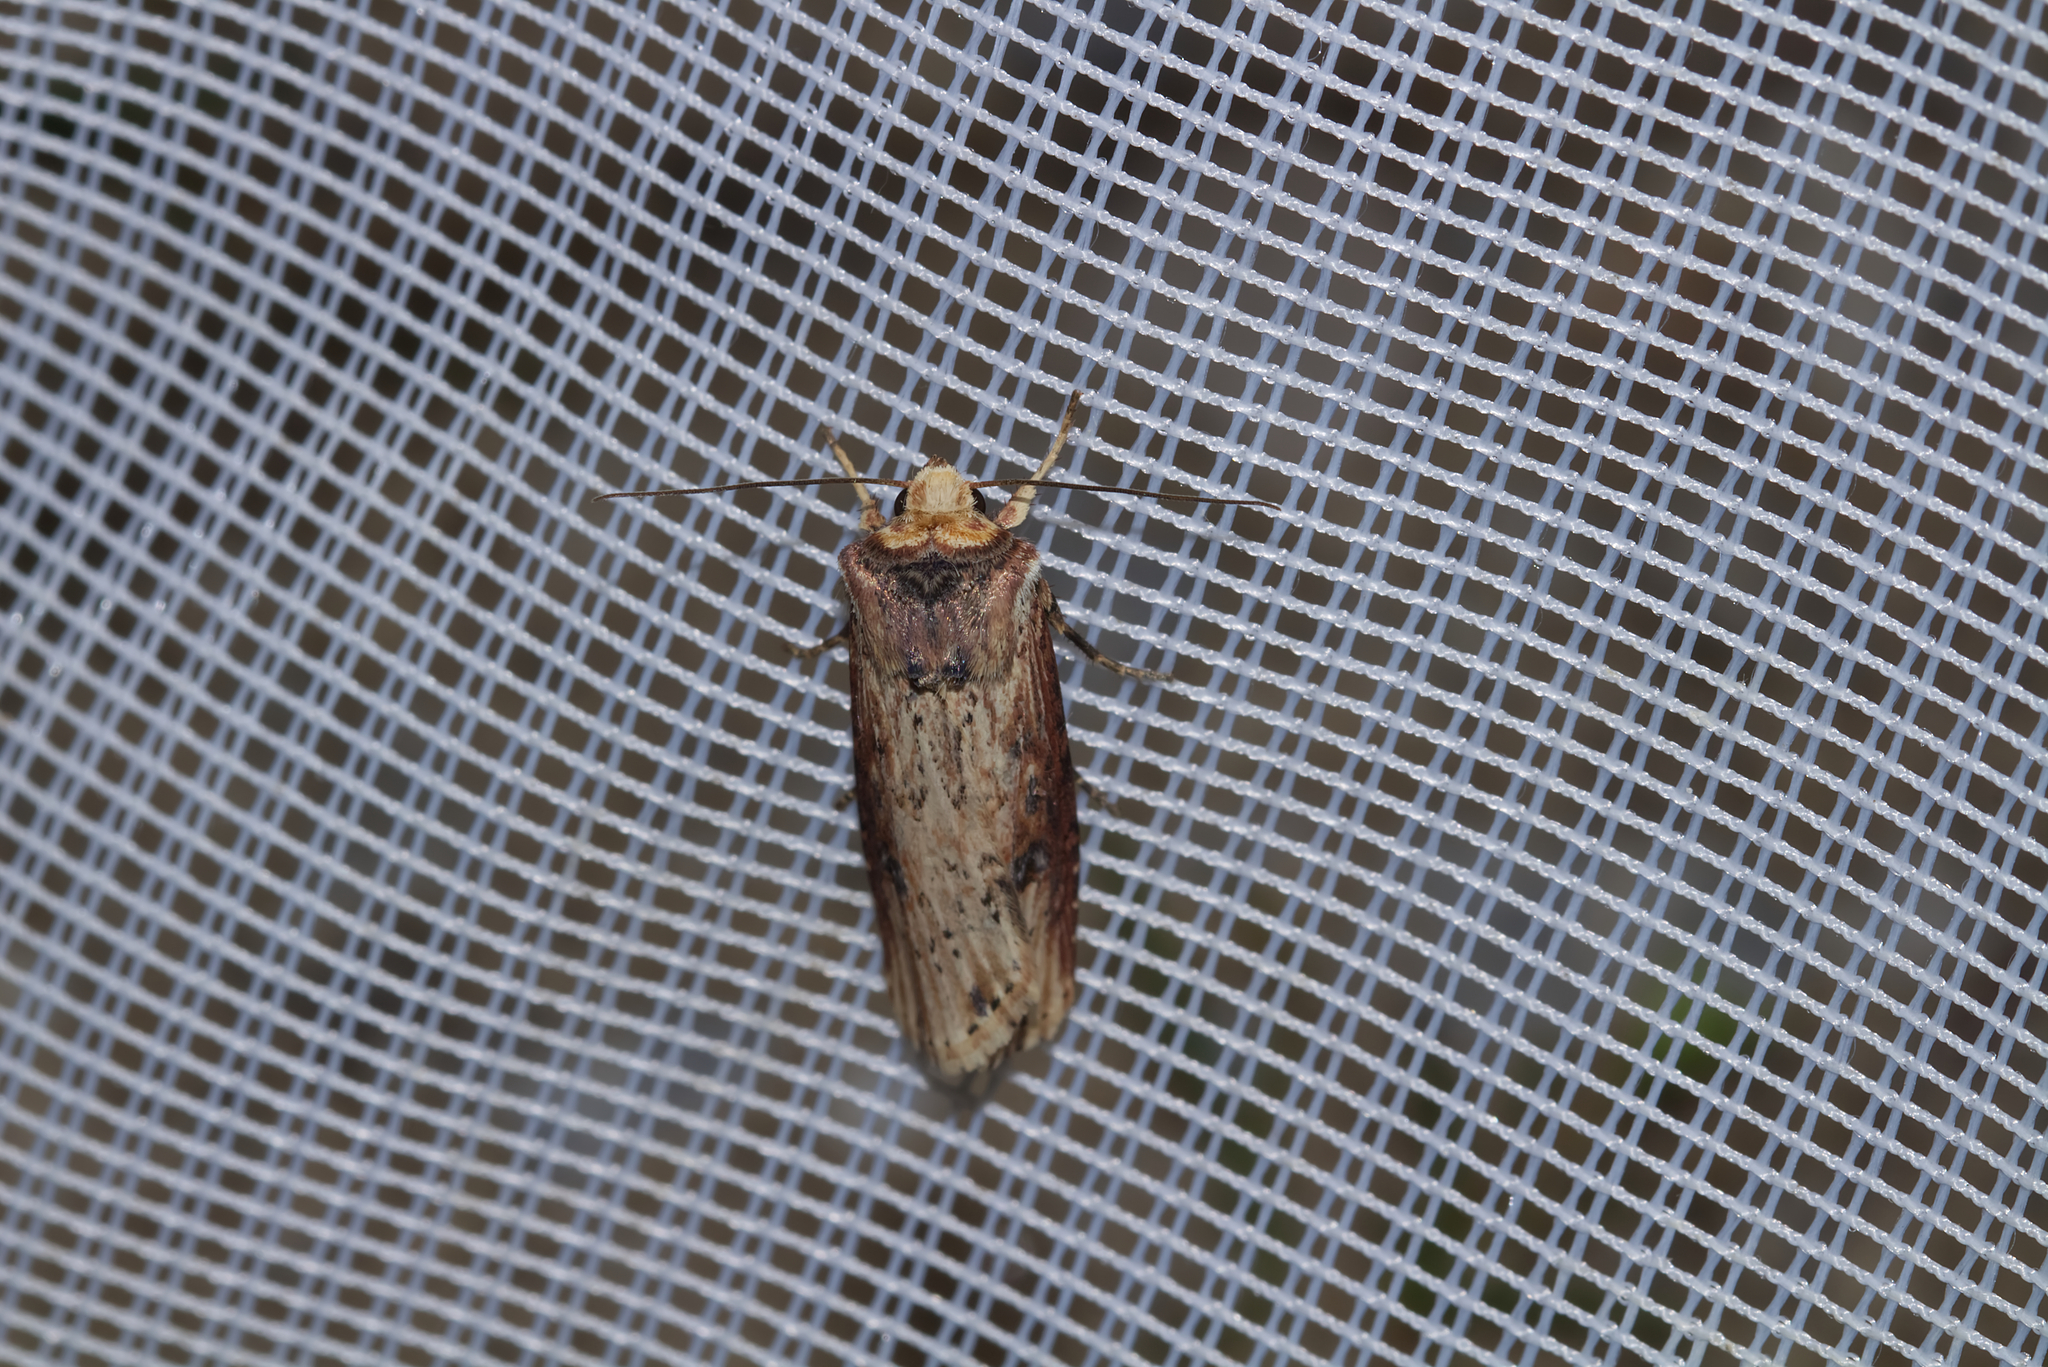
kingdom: Animalia
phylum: Arthropoda
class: Insecta
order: Lepidoptera
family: Noctuidae
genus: Axylia
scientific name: Axylia putris
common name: Flame
